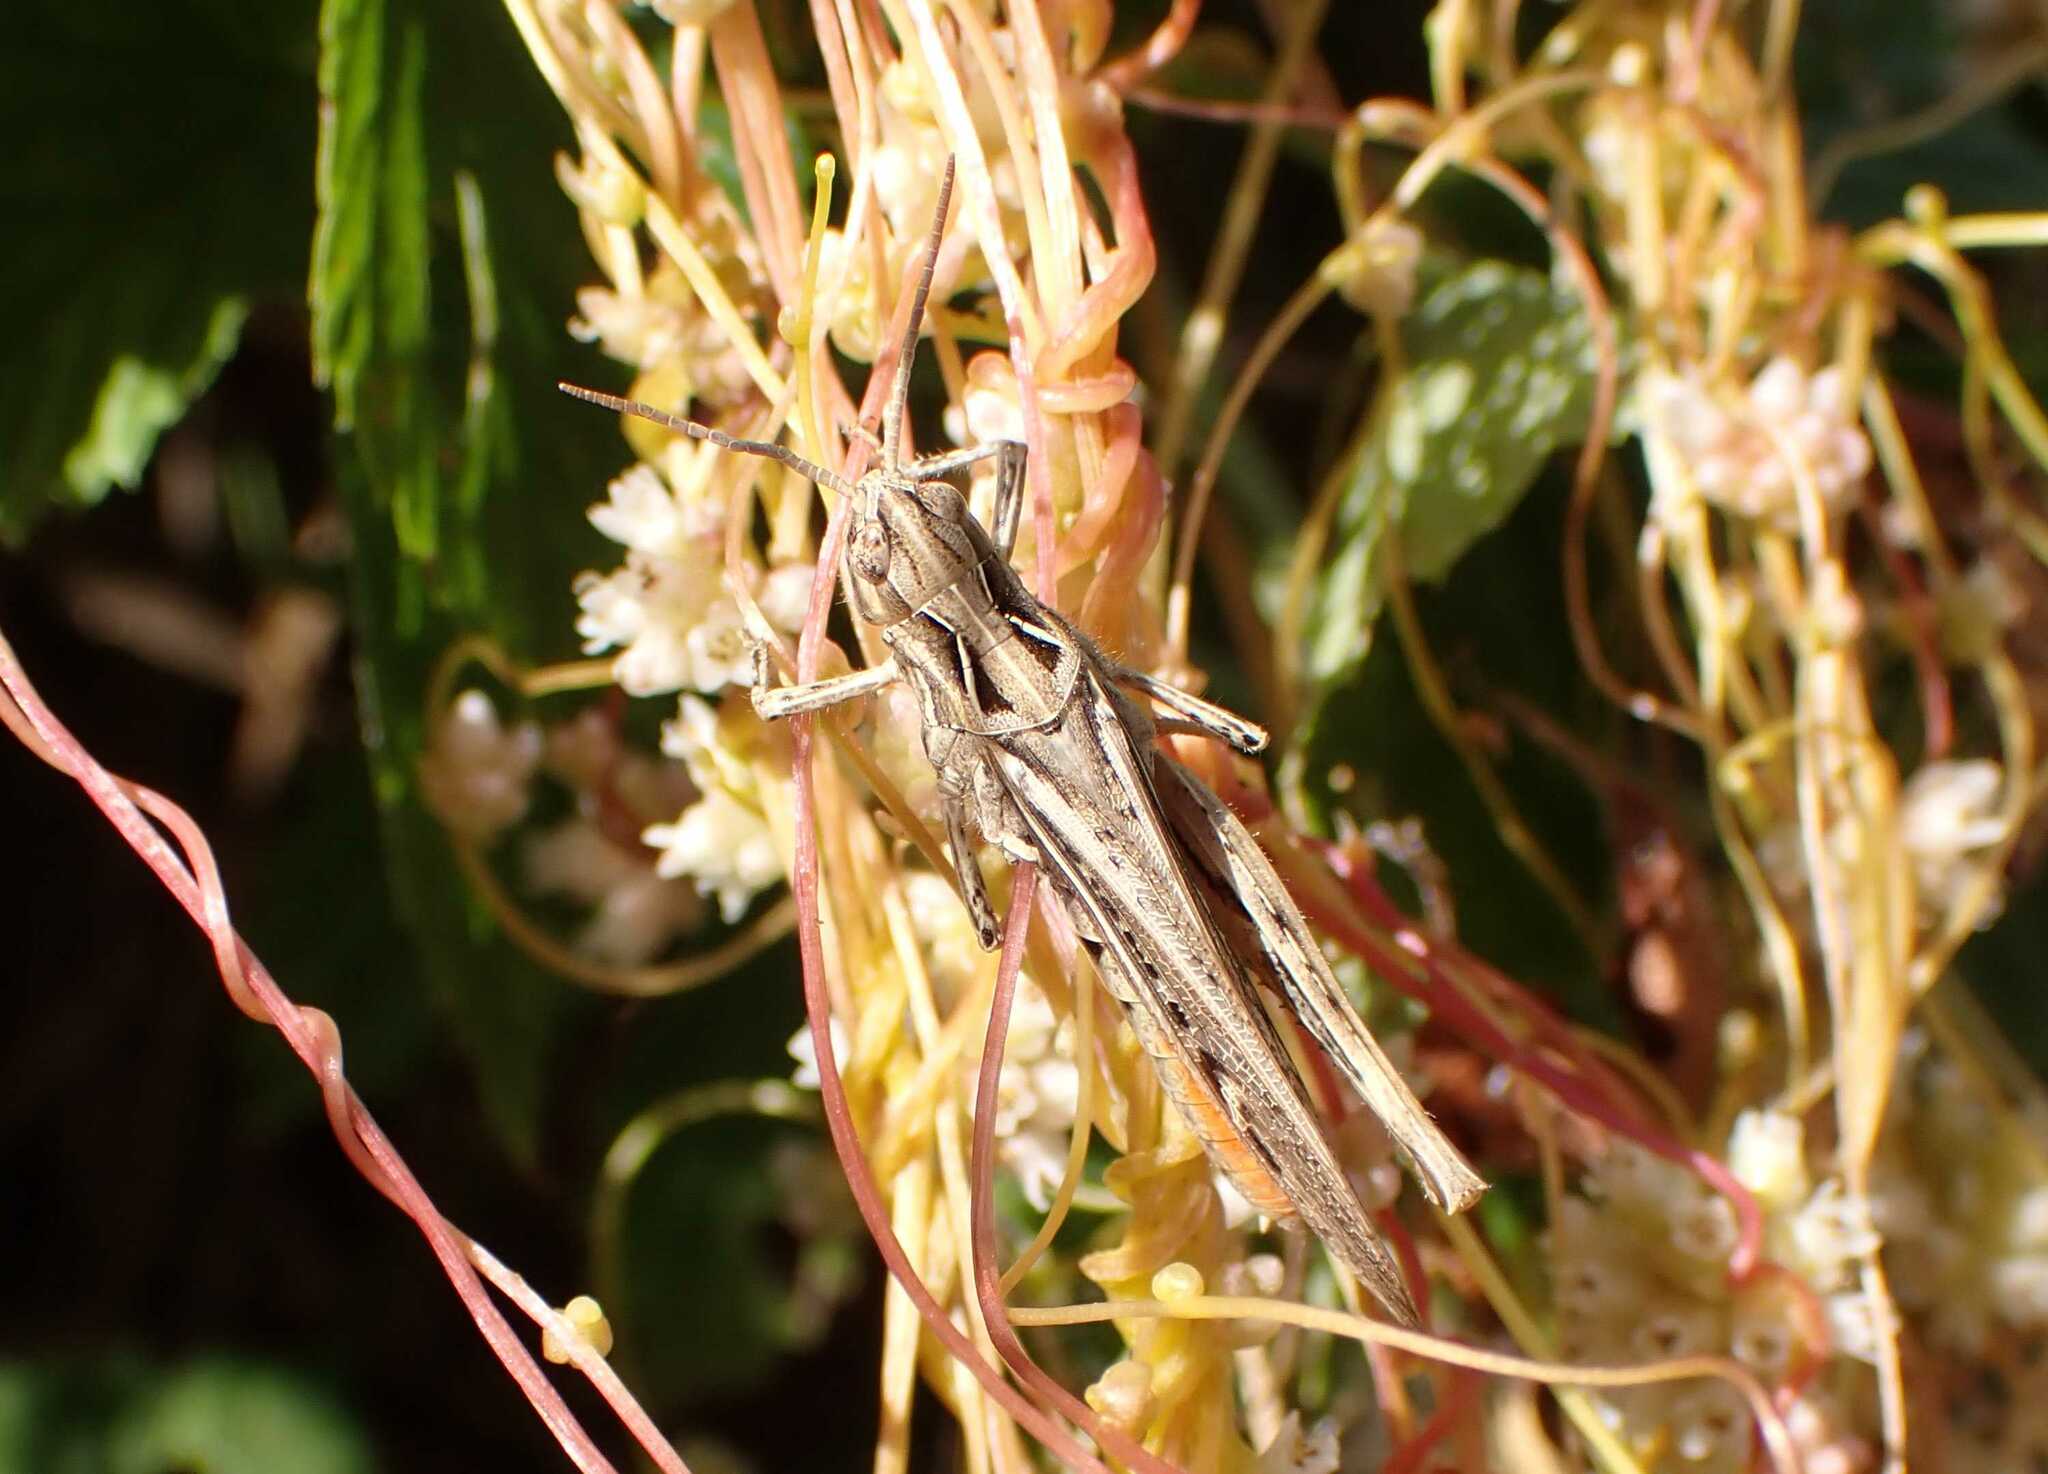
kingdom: Animalia
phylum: Arthropoda
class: Insecta
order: Orthoptera
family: Acrididae
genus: Glyptobothrus
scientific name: Glyptobothrus
